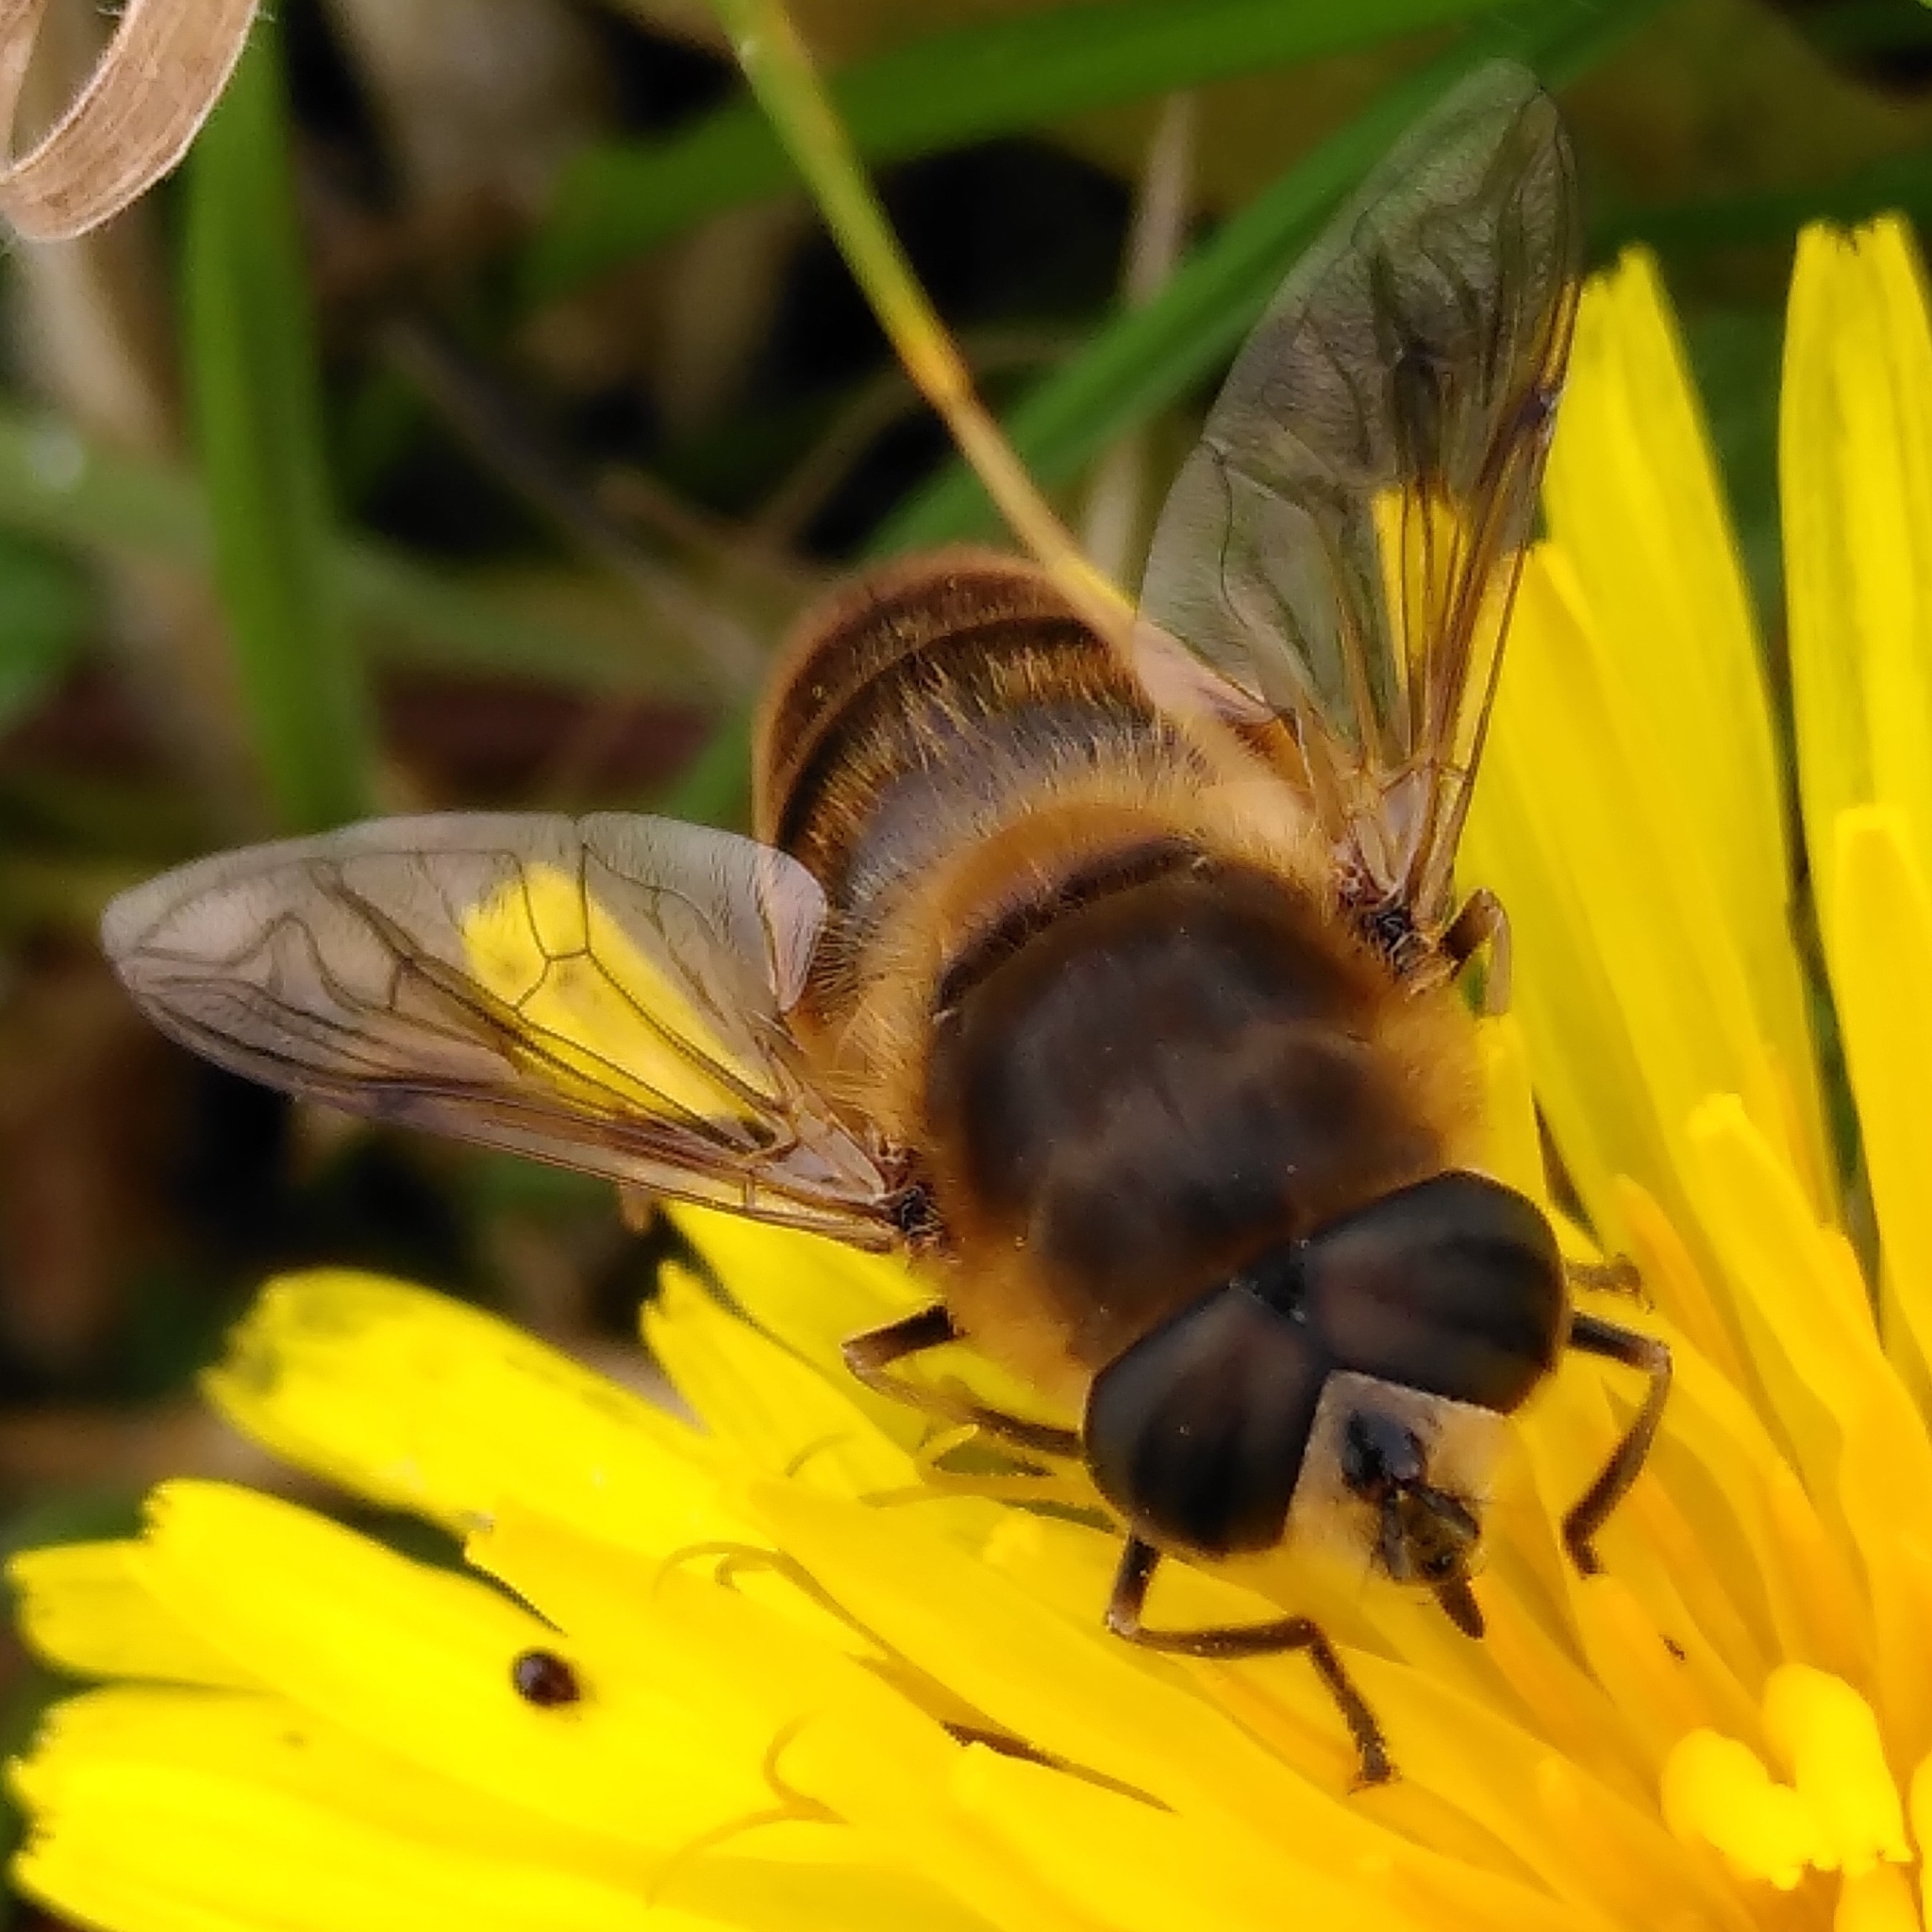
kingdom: Animalia
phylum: Arthropoda
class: Insecta
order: Diptera
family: Syrphidae
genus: Eristalis
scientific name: Eristalis tenax
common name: Drone fly
